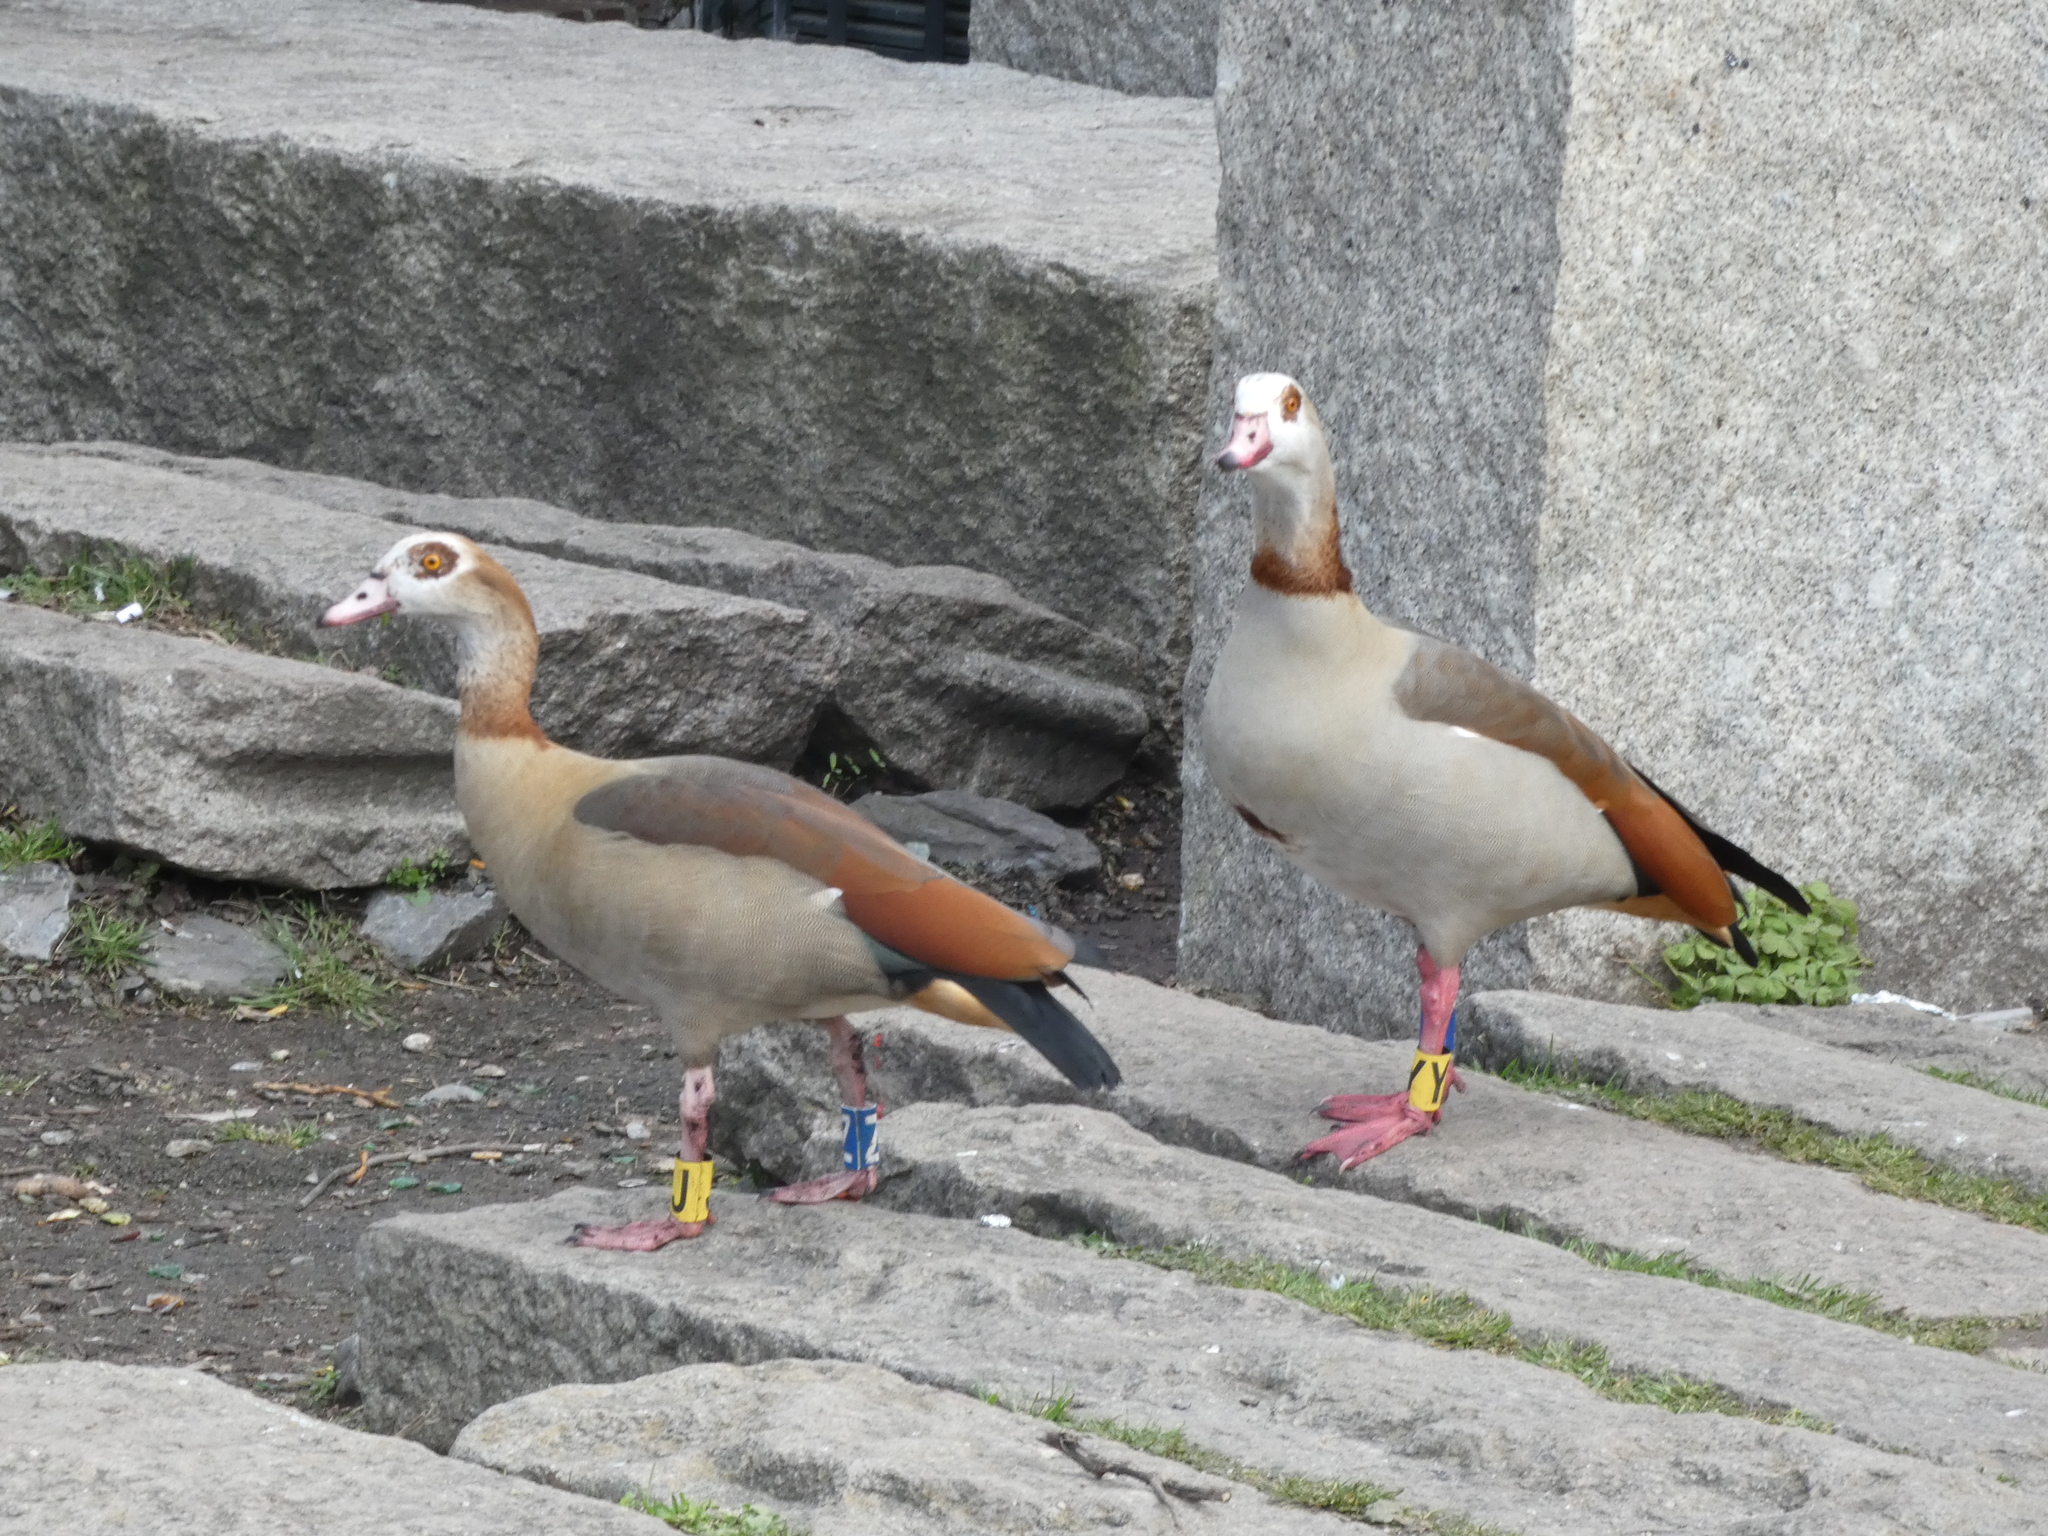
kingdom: Animalia
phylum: Chordata
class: Aves
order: Anseriformes
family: Anatidae
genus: Alopochen
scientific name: Alopochen aegyptiaca
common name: Egyptian goose
